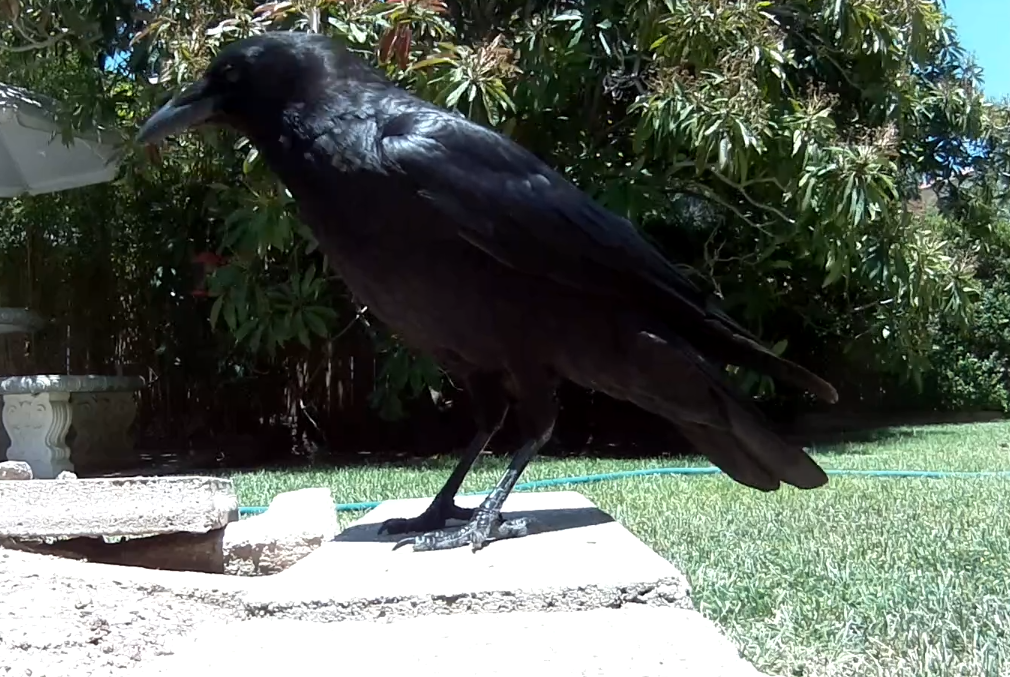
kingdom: Animalia
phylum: Chordata
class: Aves
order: Passeriformes
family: Corvidae
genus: Corvus
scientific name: Corvus brachyrhynchos
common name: American crow
